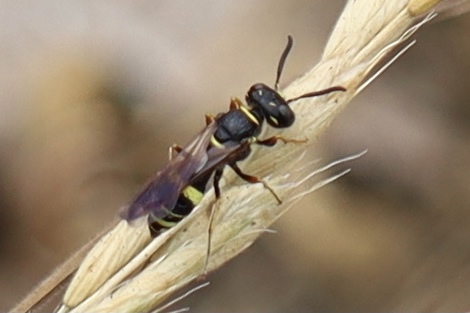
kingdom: Animalia
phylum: Arthropoda
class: Insecta
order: Hymenoptera
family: Crabronidae
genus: Philanthus
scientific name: Philanthus gibbosus
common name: Humped beewolf
